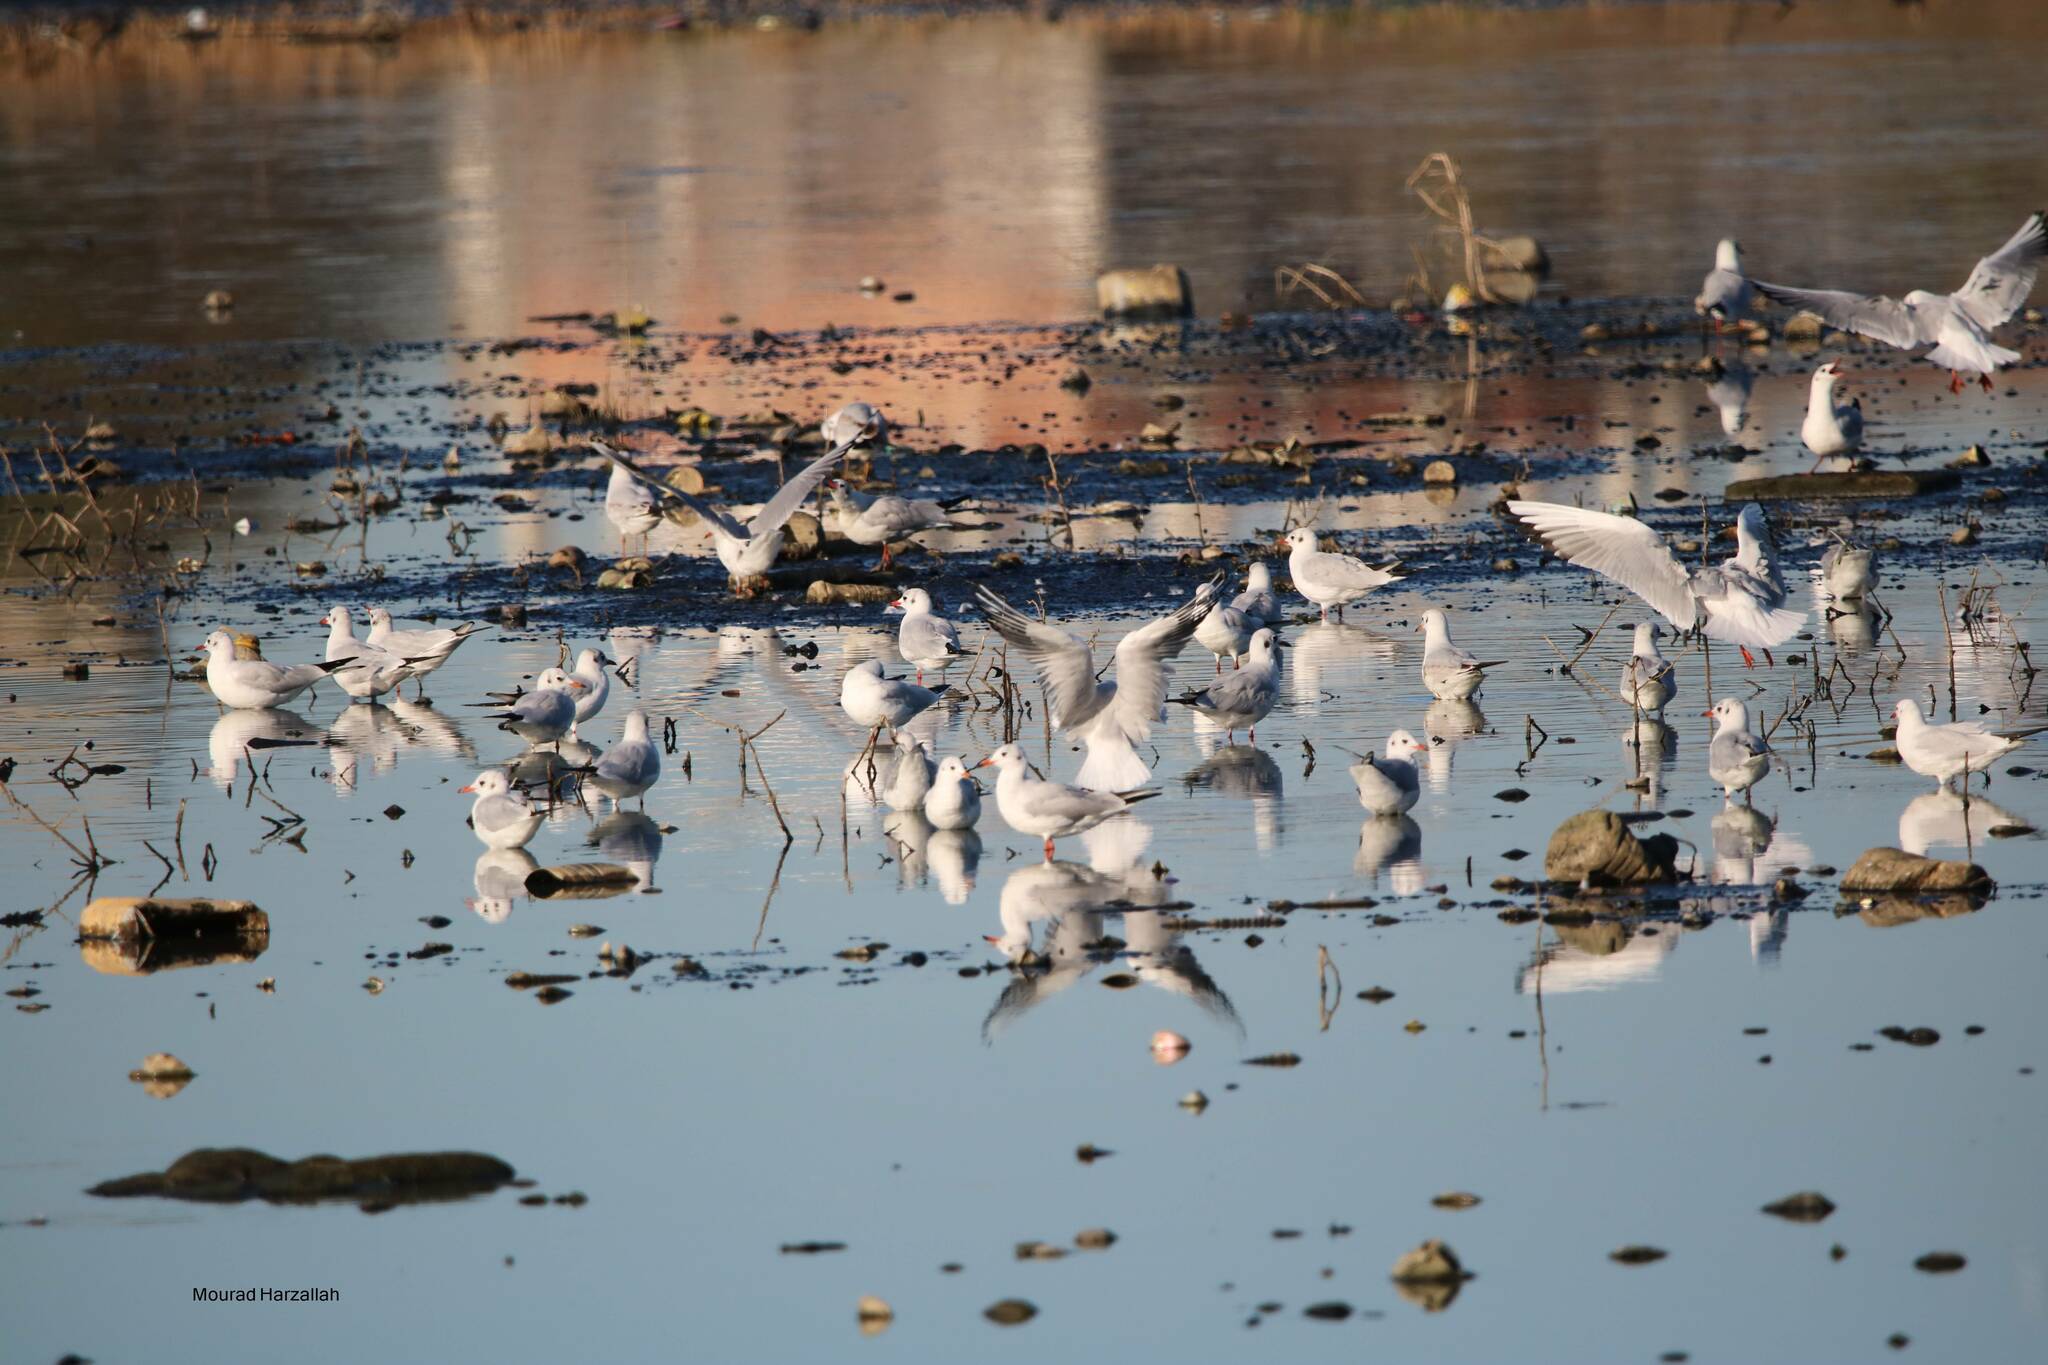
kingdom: Animalia
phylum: Chordata
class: Aves
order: Charadriiformes
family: Laridae
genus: Chroicocephalus
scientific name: Chroicocephalus ridibundus
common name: Black-headed gull
